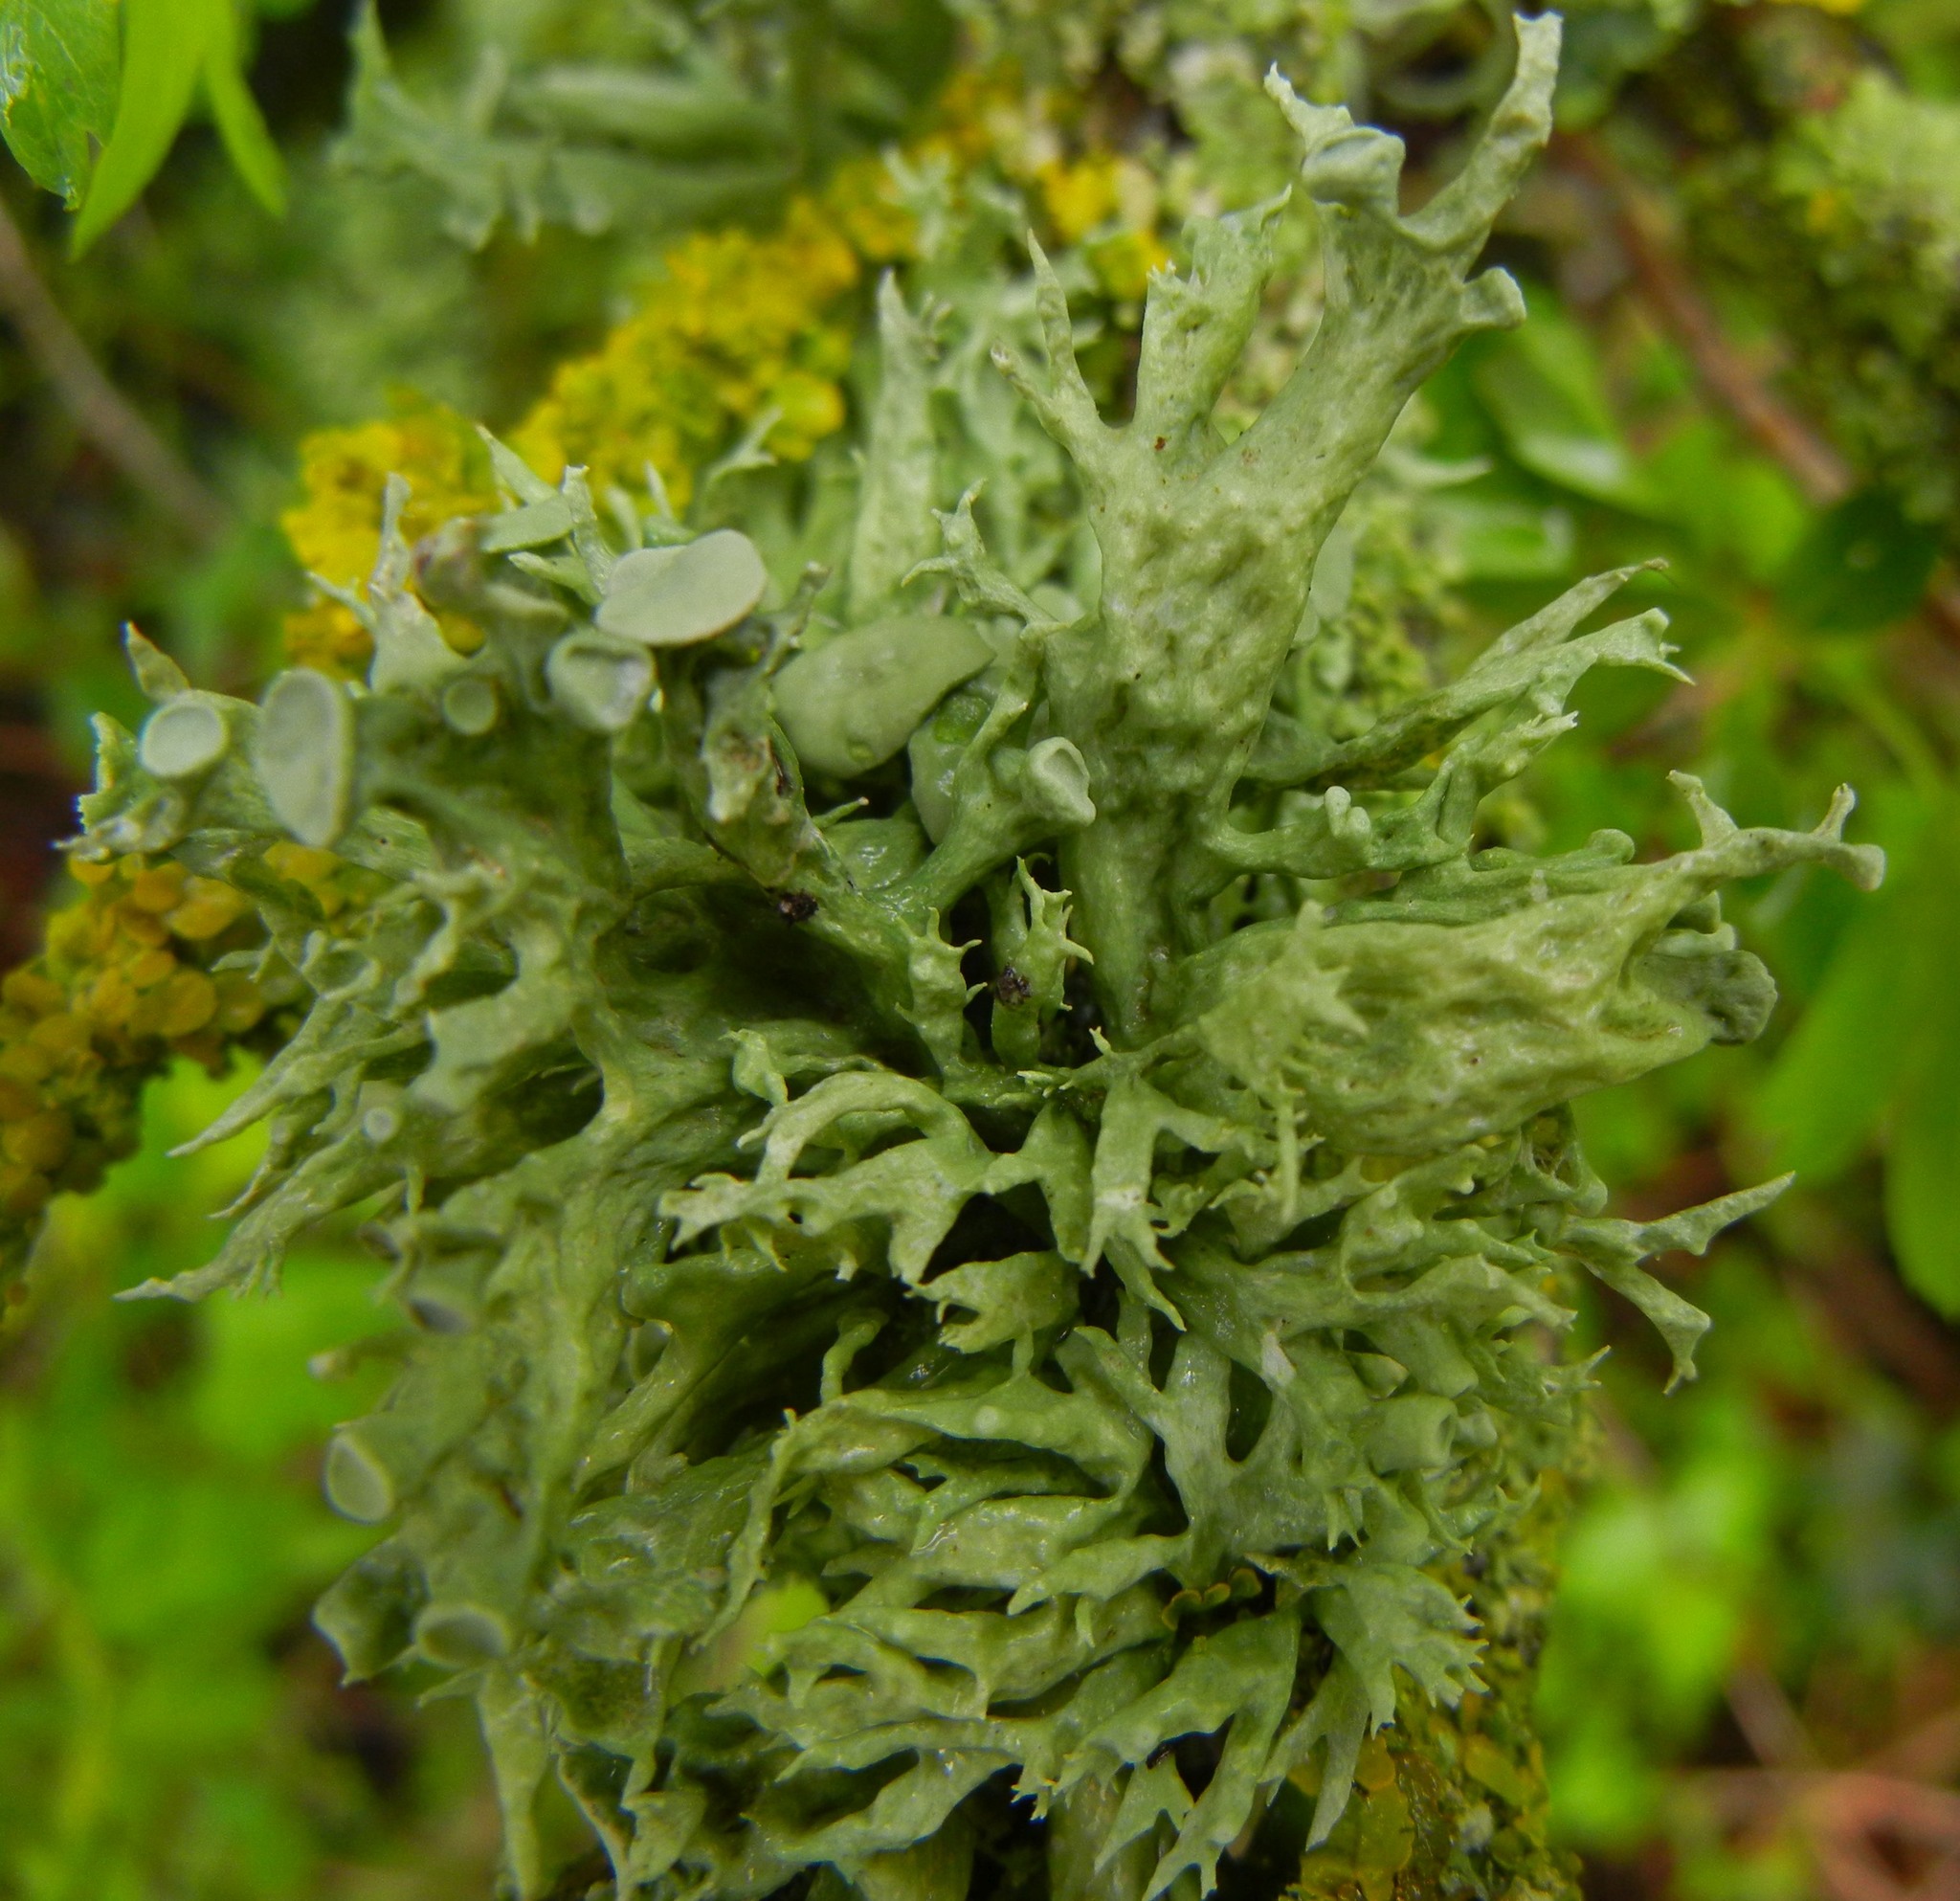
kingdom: Fungi
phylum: Ascomycota
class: Lecanoromycetes
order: Lecanorales
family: Ramalinaceae
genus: Ramalina
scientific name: Ramalina fastigiata
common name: Dotted ribbon lichen
